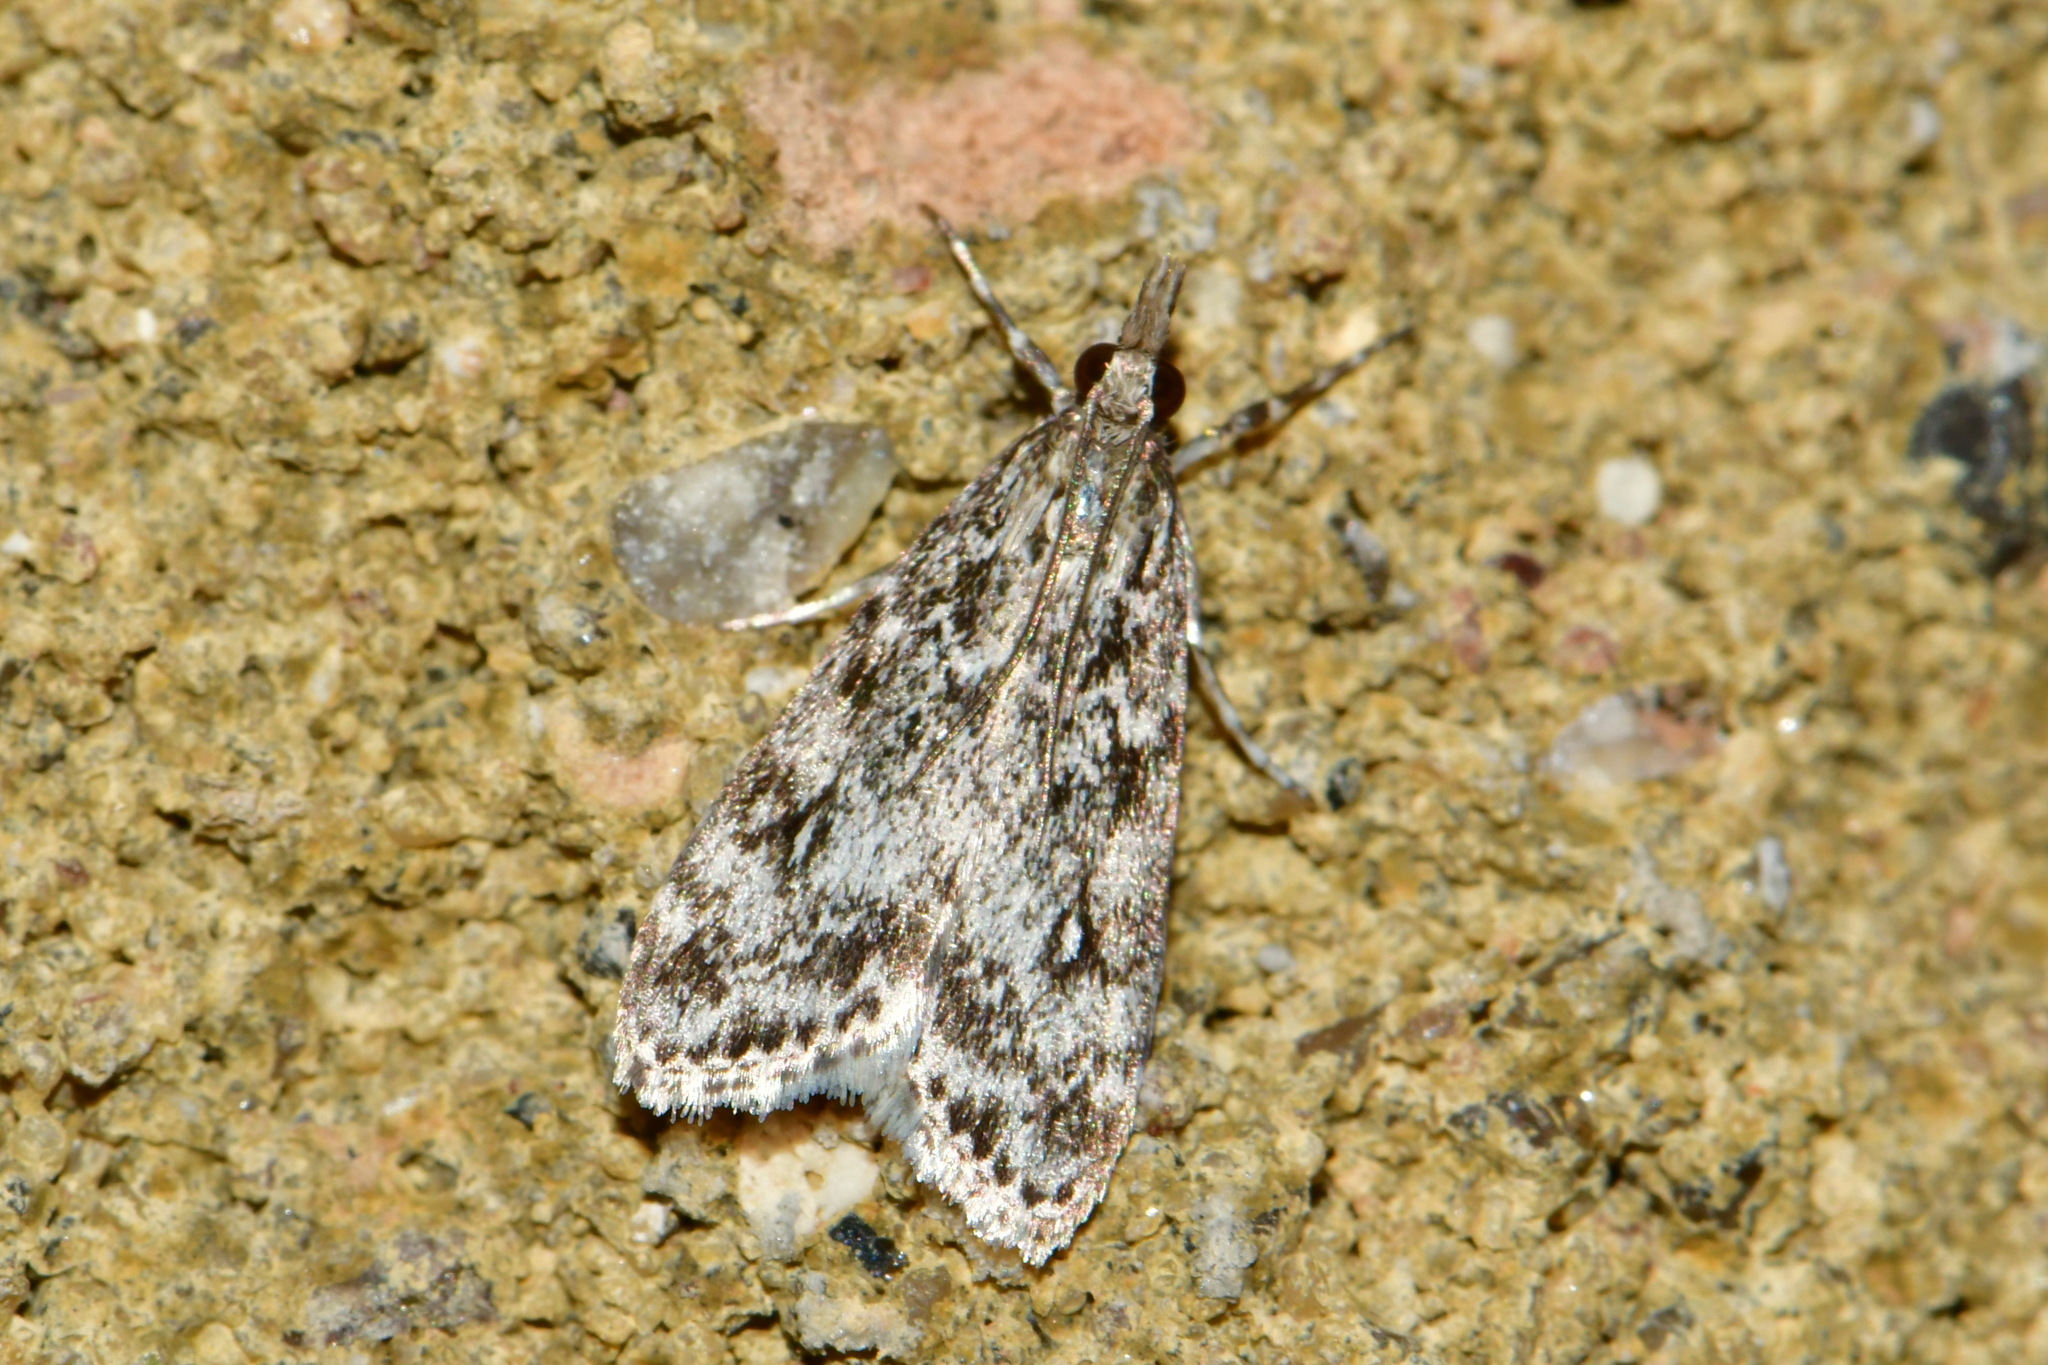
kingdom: Animalia
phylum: Arthropoda
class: Insecta
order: Lepidoptera
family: Crambidae
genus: Eudonia
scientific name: Eudonia truncicolella
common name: Ground-moss grey
